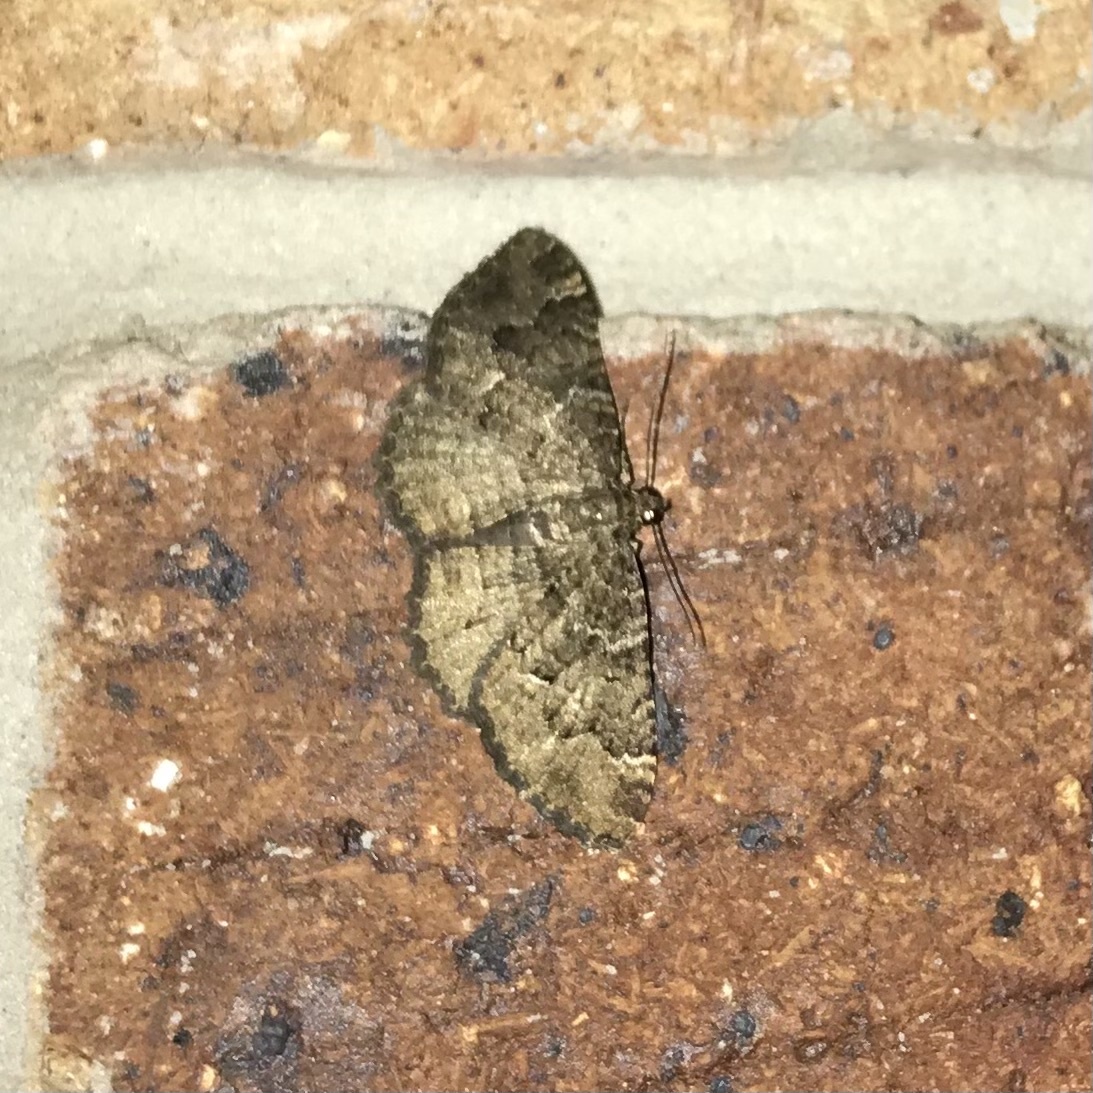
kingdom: Animalia
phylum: Arthropoda
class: Insecta
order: Lepidoptera
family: Geometridae
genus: Visiana
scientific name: Visiana brujata
